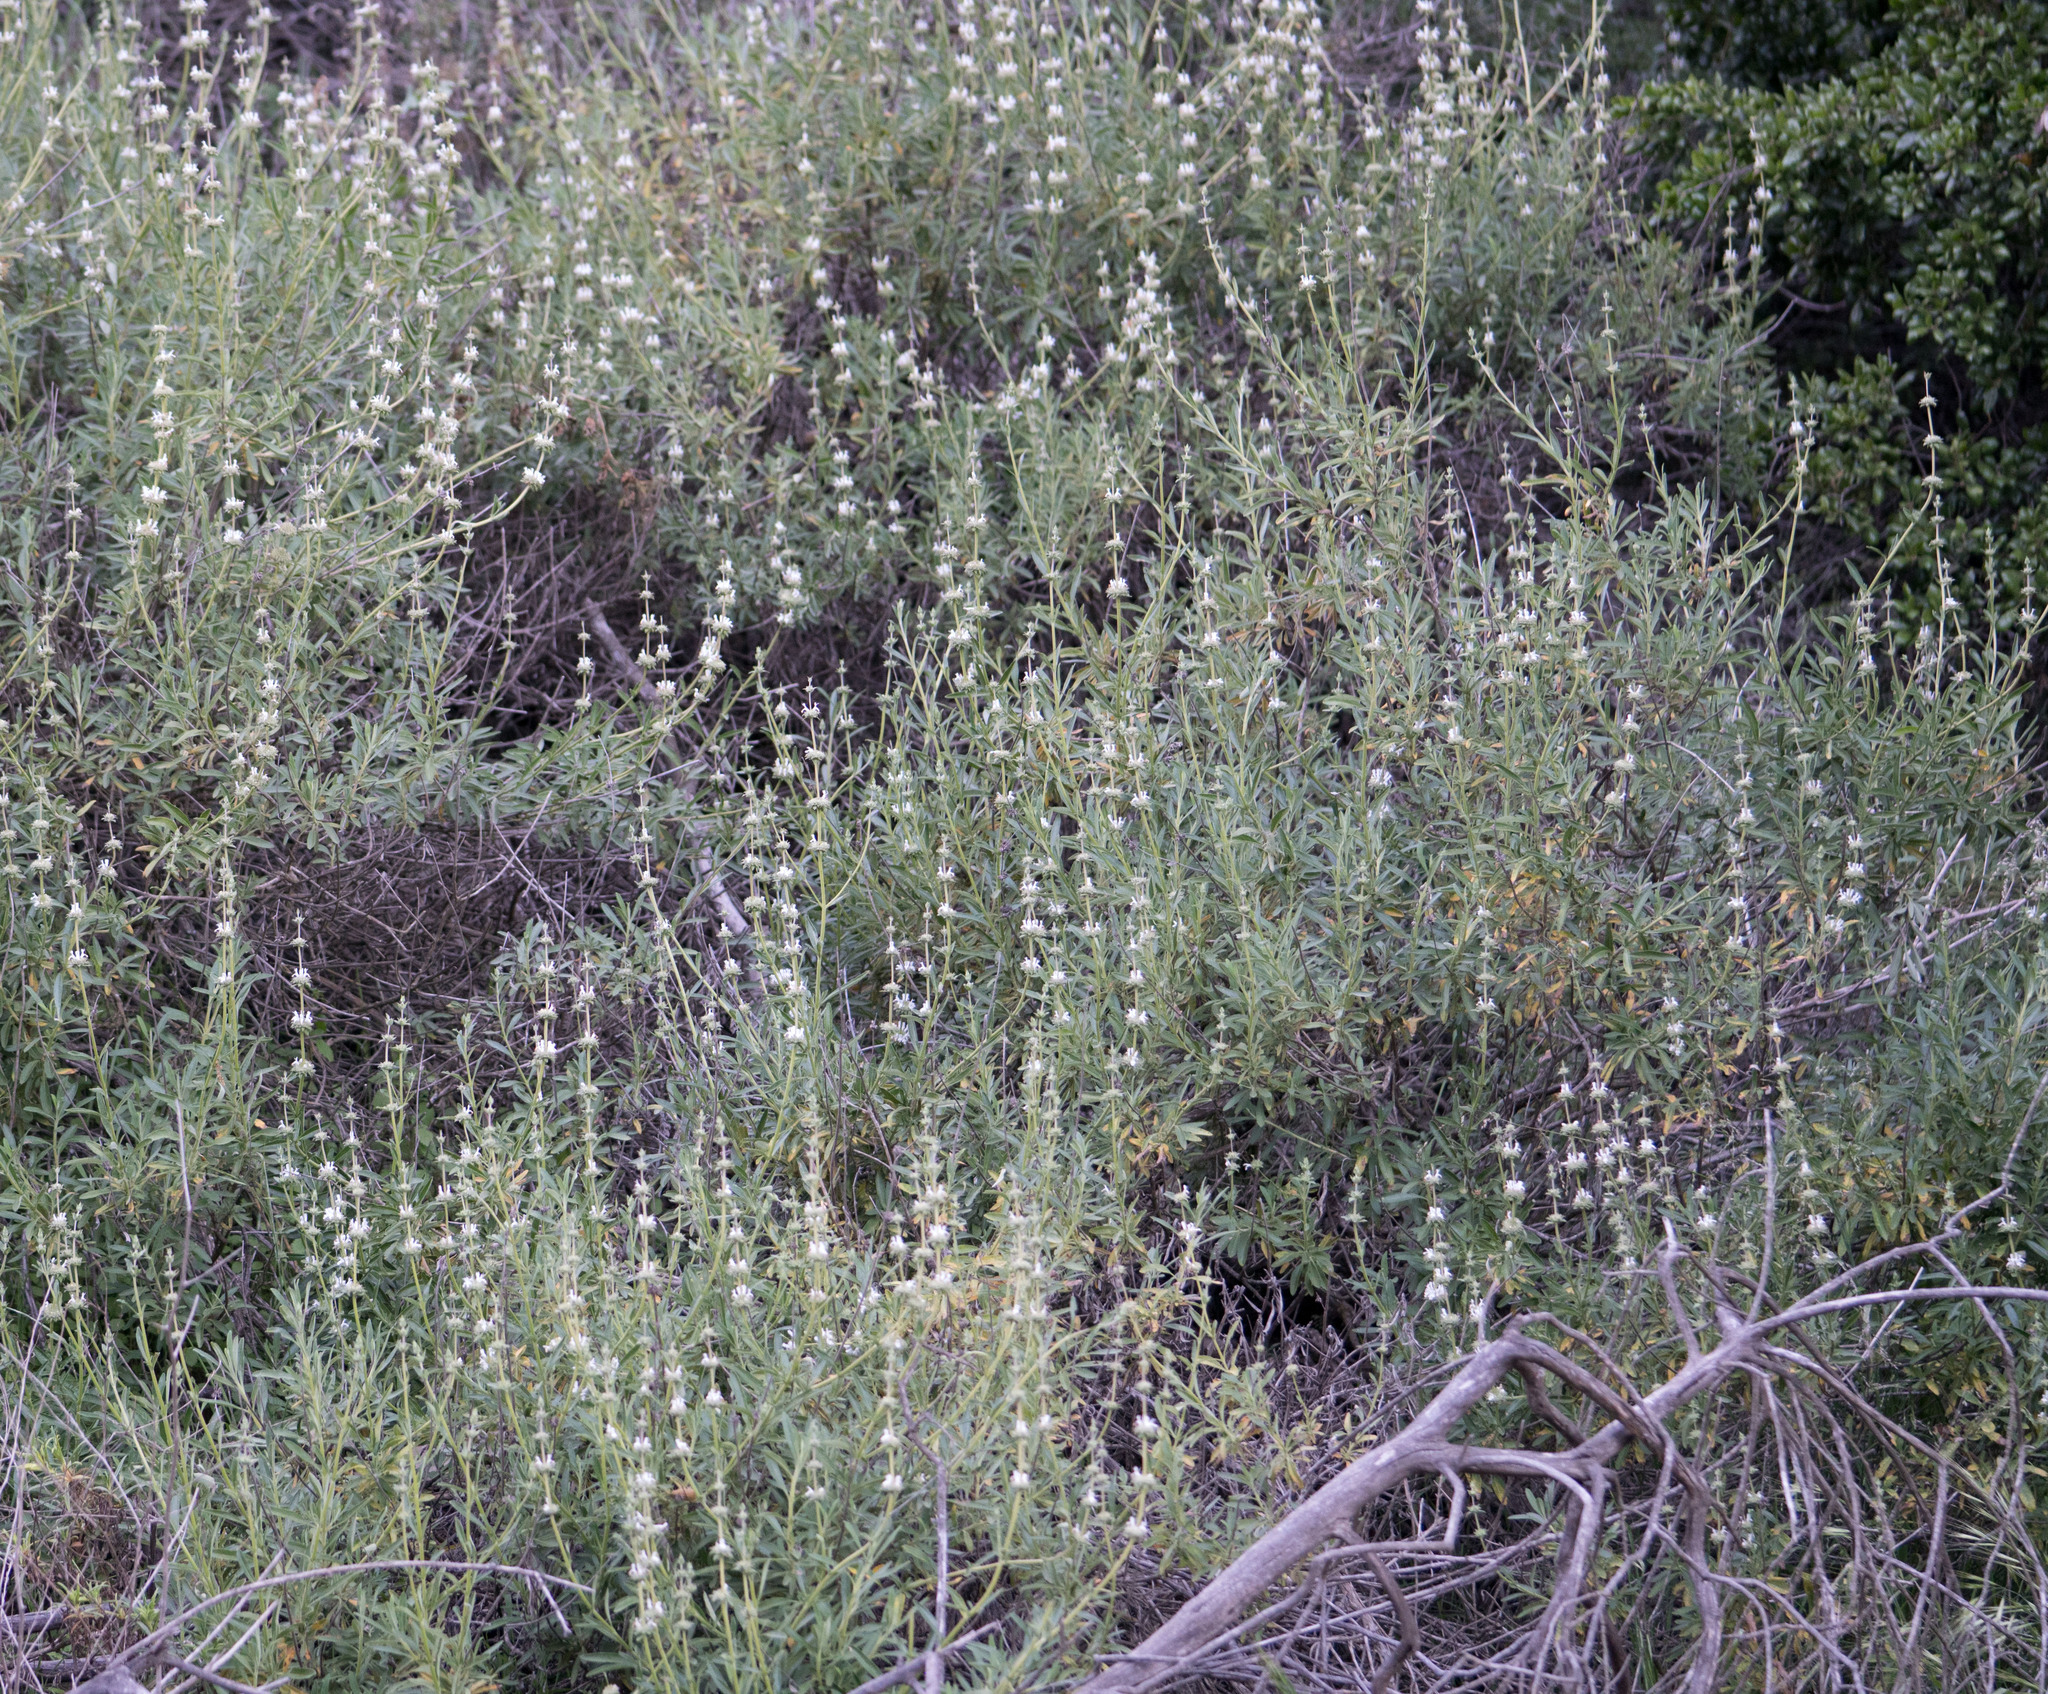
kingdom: Plantae
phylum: Tracheophyta
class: Magnoliopsida
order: Lamiales
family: Lamiaceae
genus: Salvia
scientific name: Salvia mellifera
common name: Black sage
